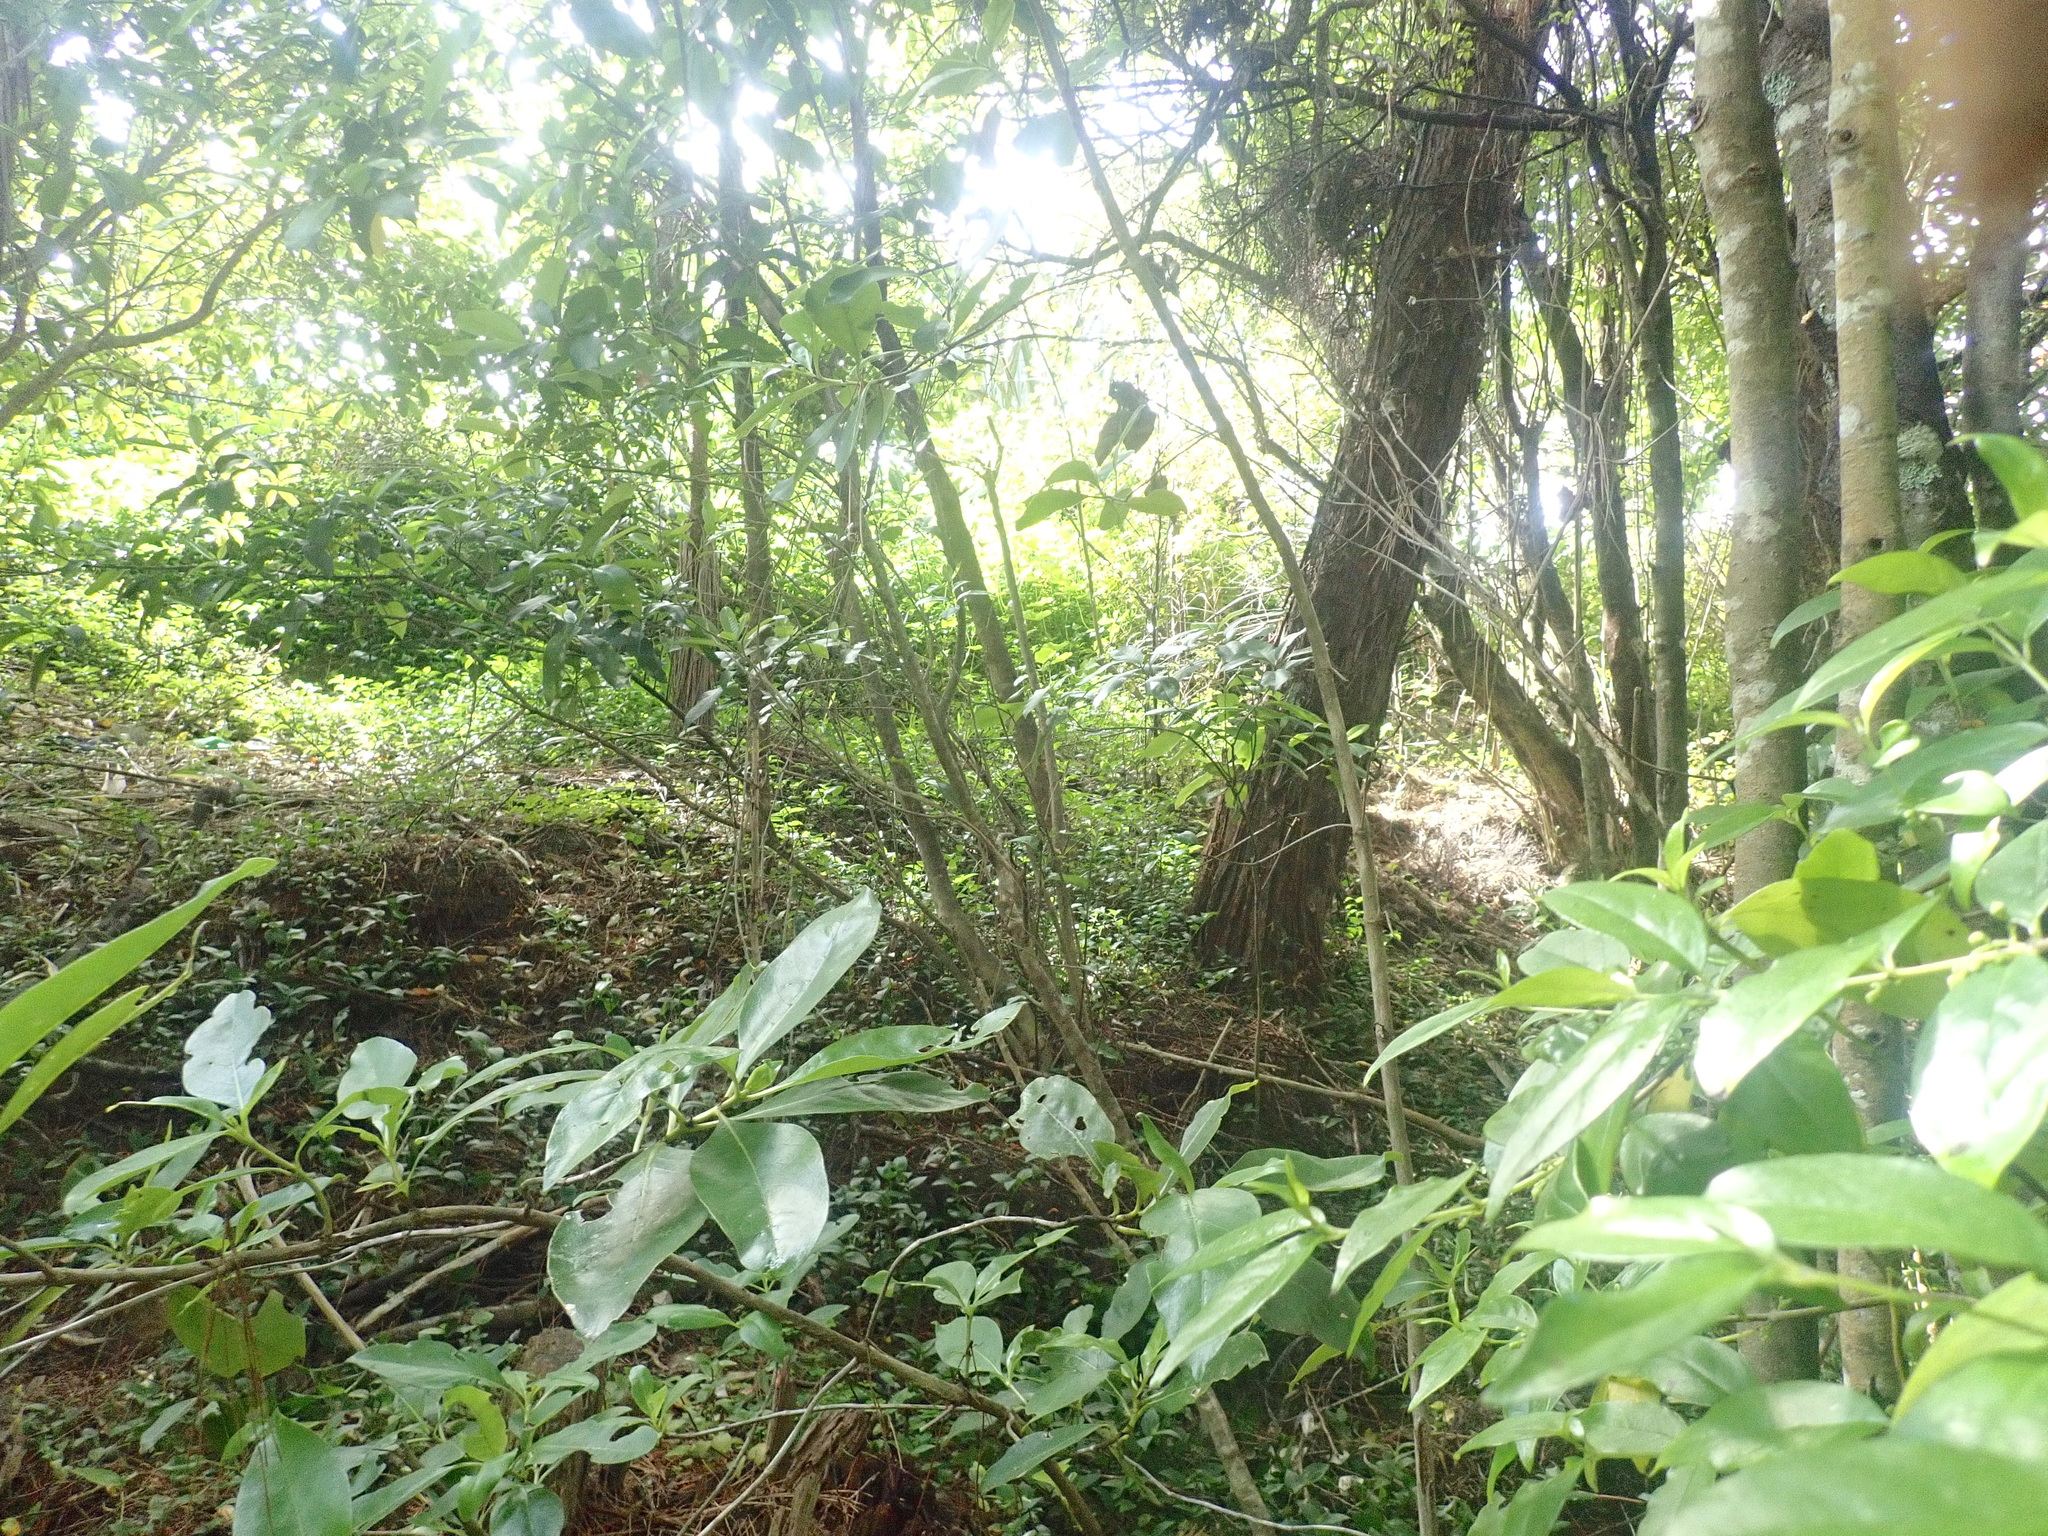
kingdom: Plantae
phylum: Tracheophyta
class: Magnoliopsida
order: Malpighiales
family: Violaceae
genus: Melicytus
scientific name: Melicytus ramiflorus
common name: Mahoe
